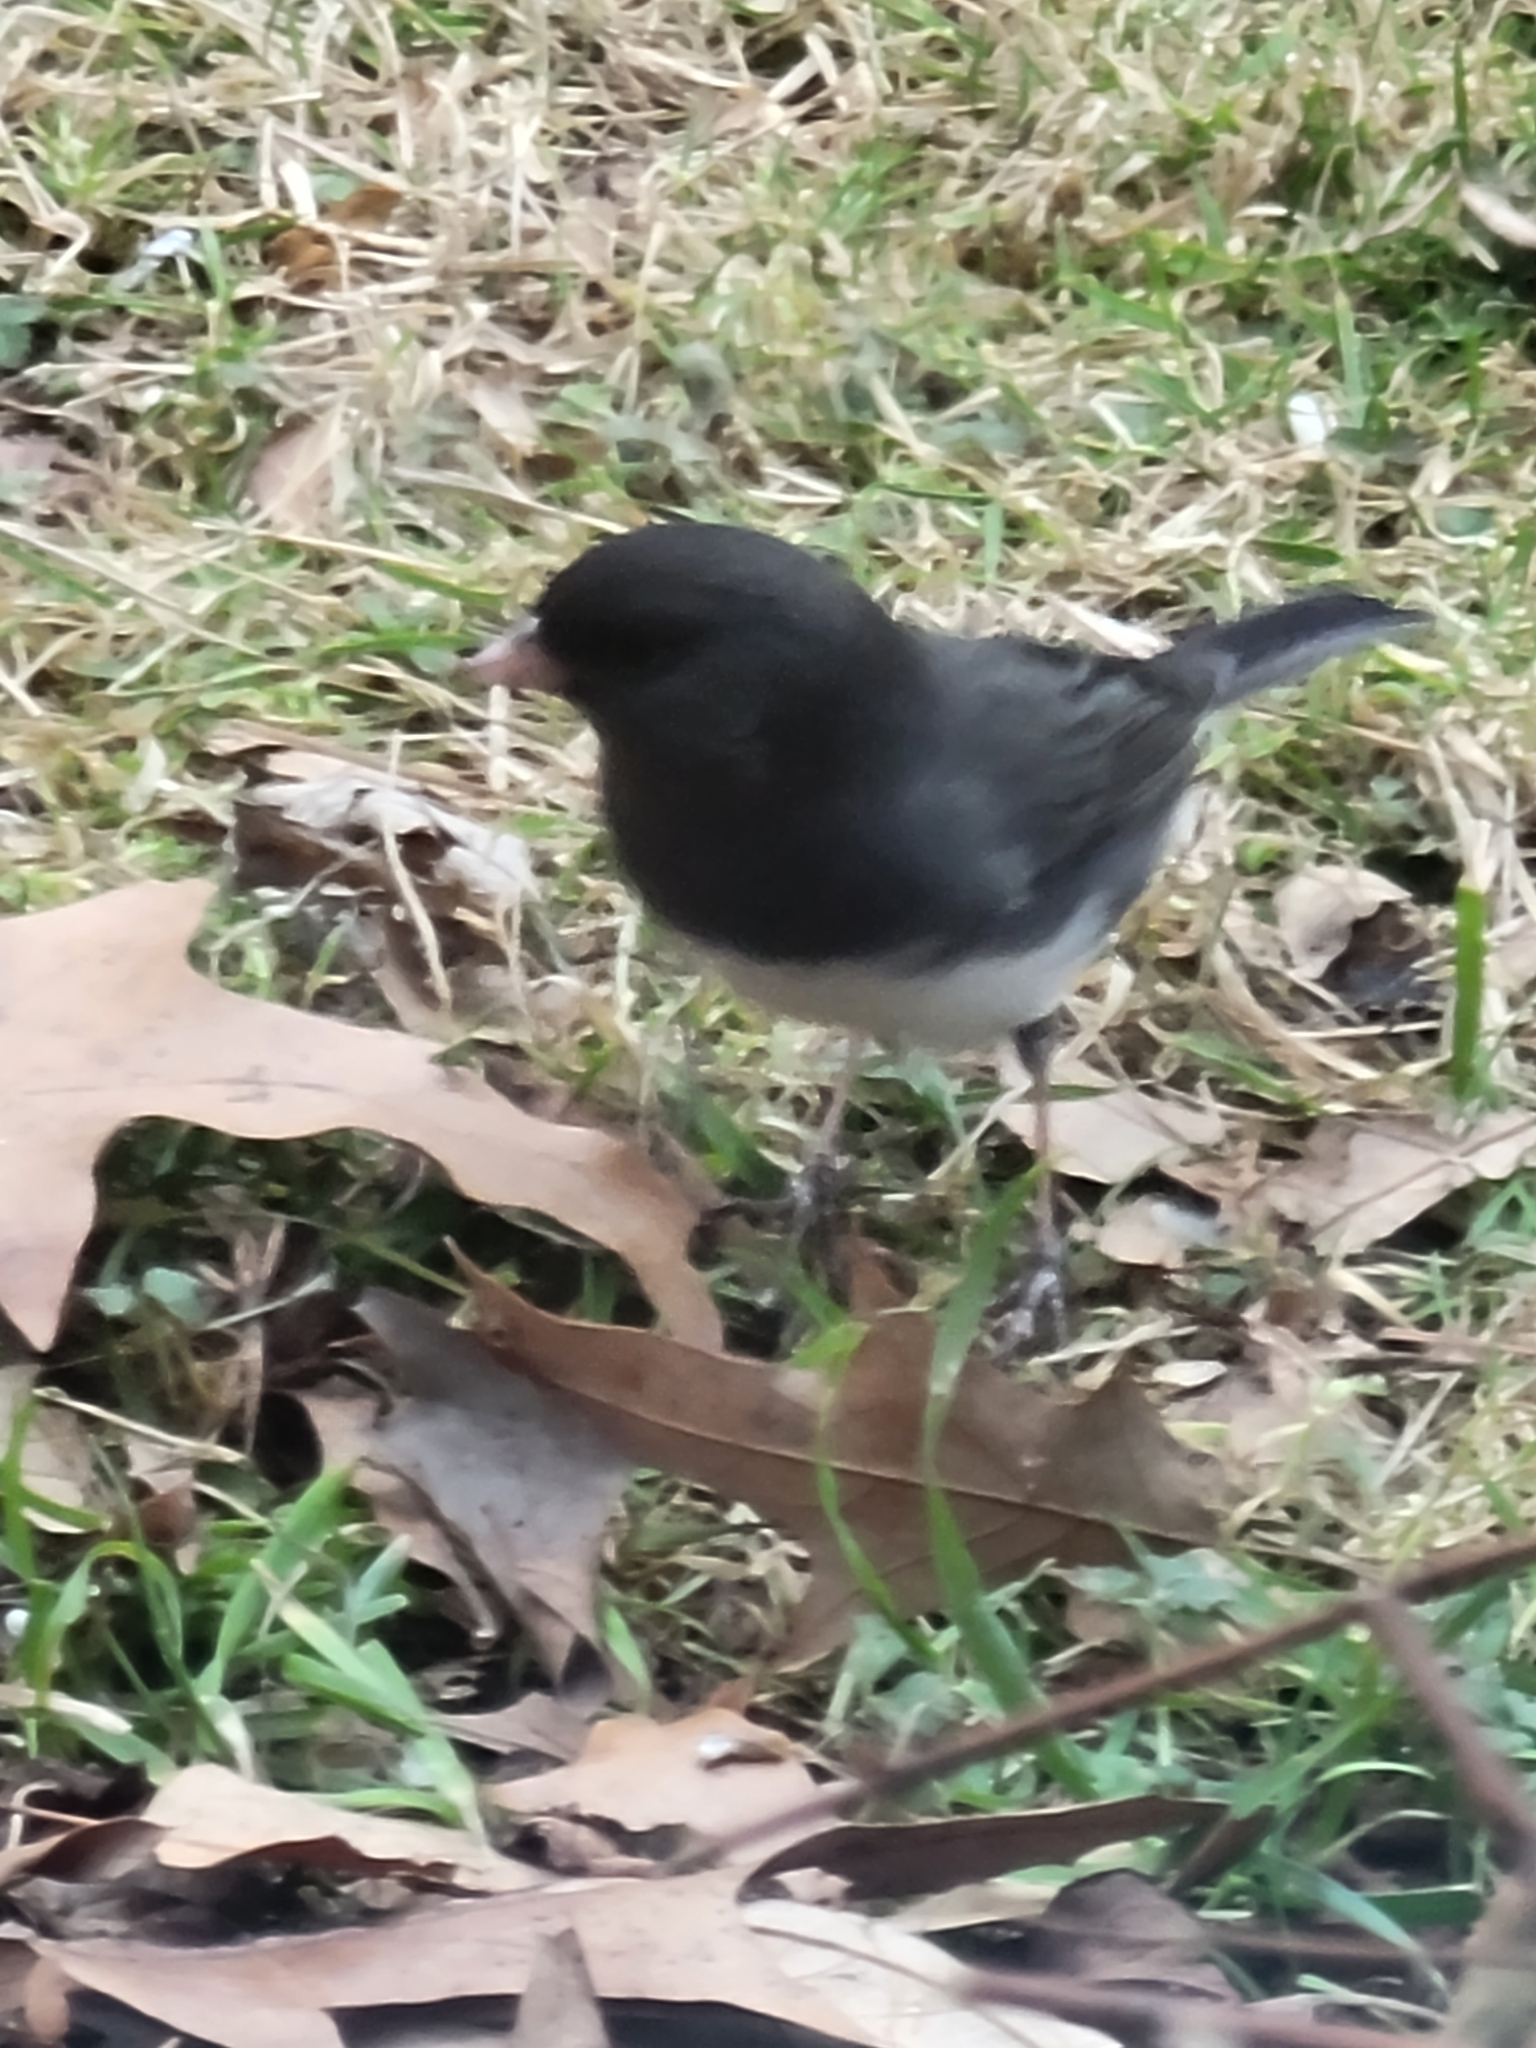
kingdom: Animalia
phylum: Chordata
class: Aves
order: Passeriformes
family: Passerellidae
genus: Junco
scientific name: Junco hyemalis
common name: Dark-eyed junco
